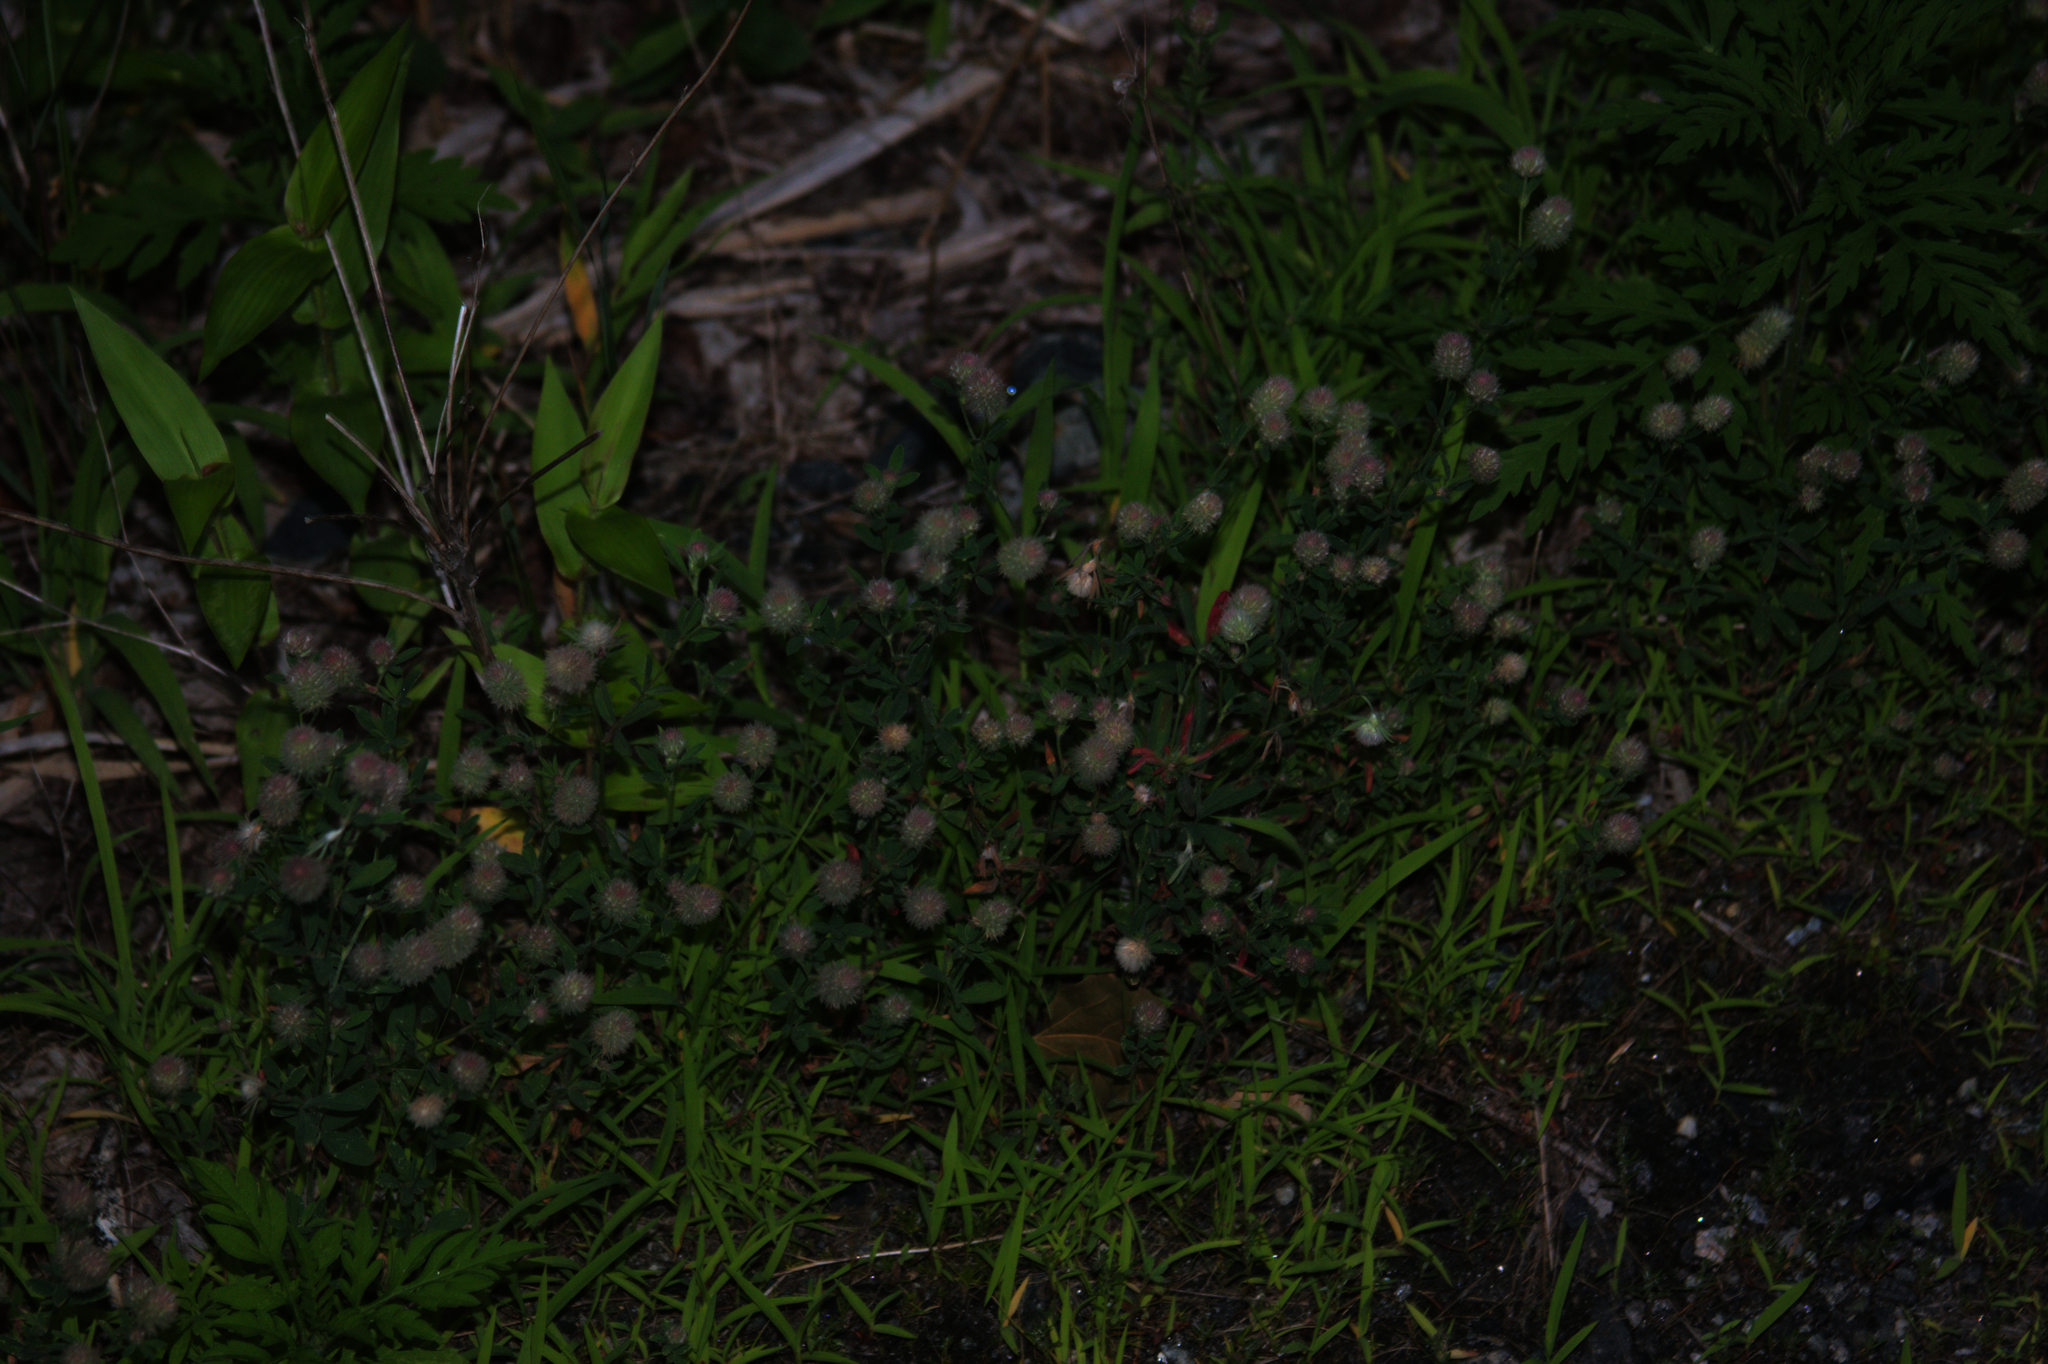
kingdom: Plantae
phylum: Tracheophyta
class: Magnoliopsida
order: Fabales
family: Fabaceae
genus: Trifolium
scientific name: Trifolium arvense
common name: Hare's-foot clover
